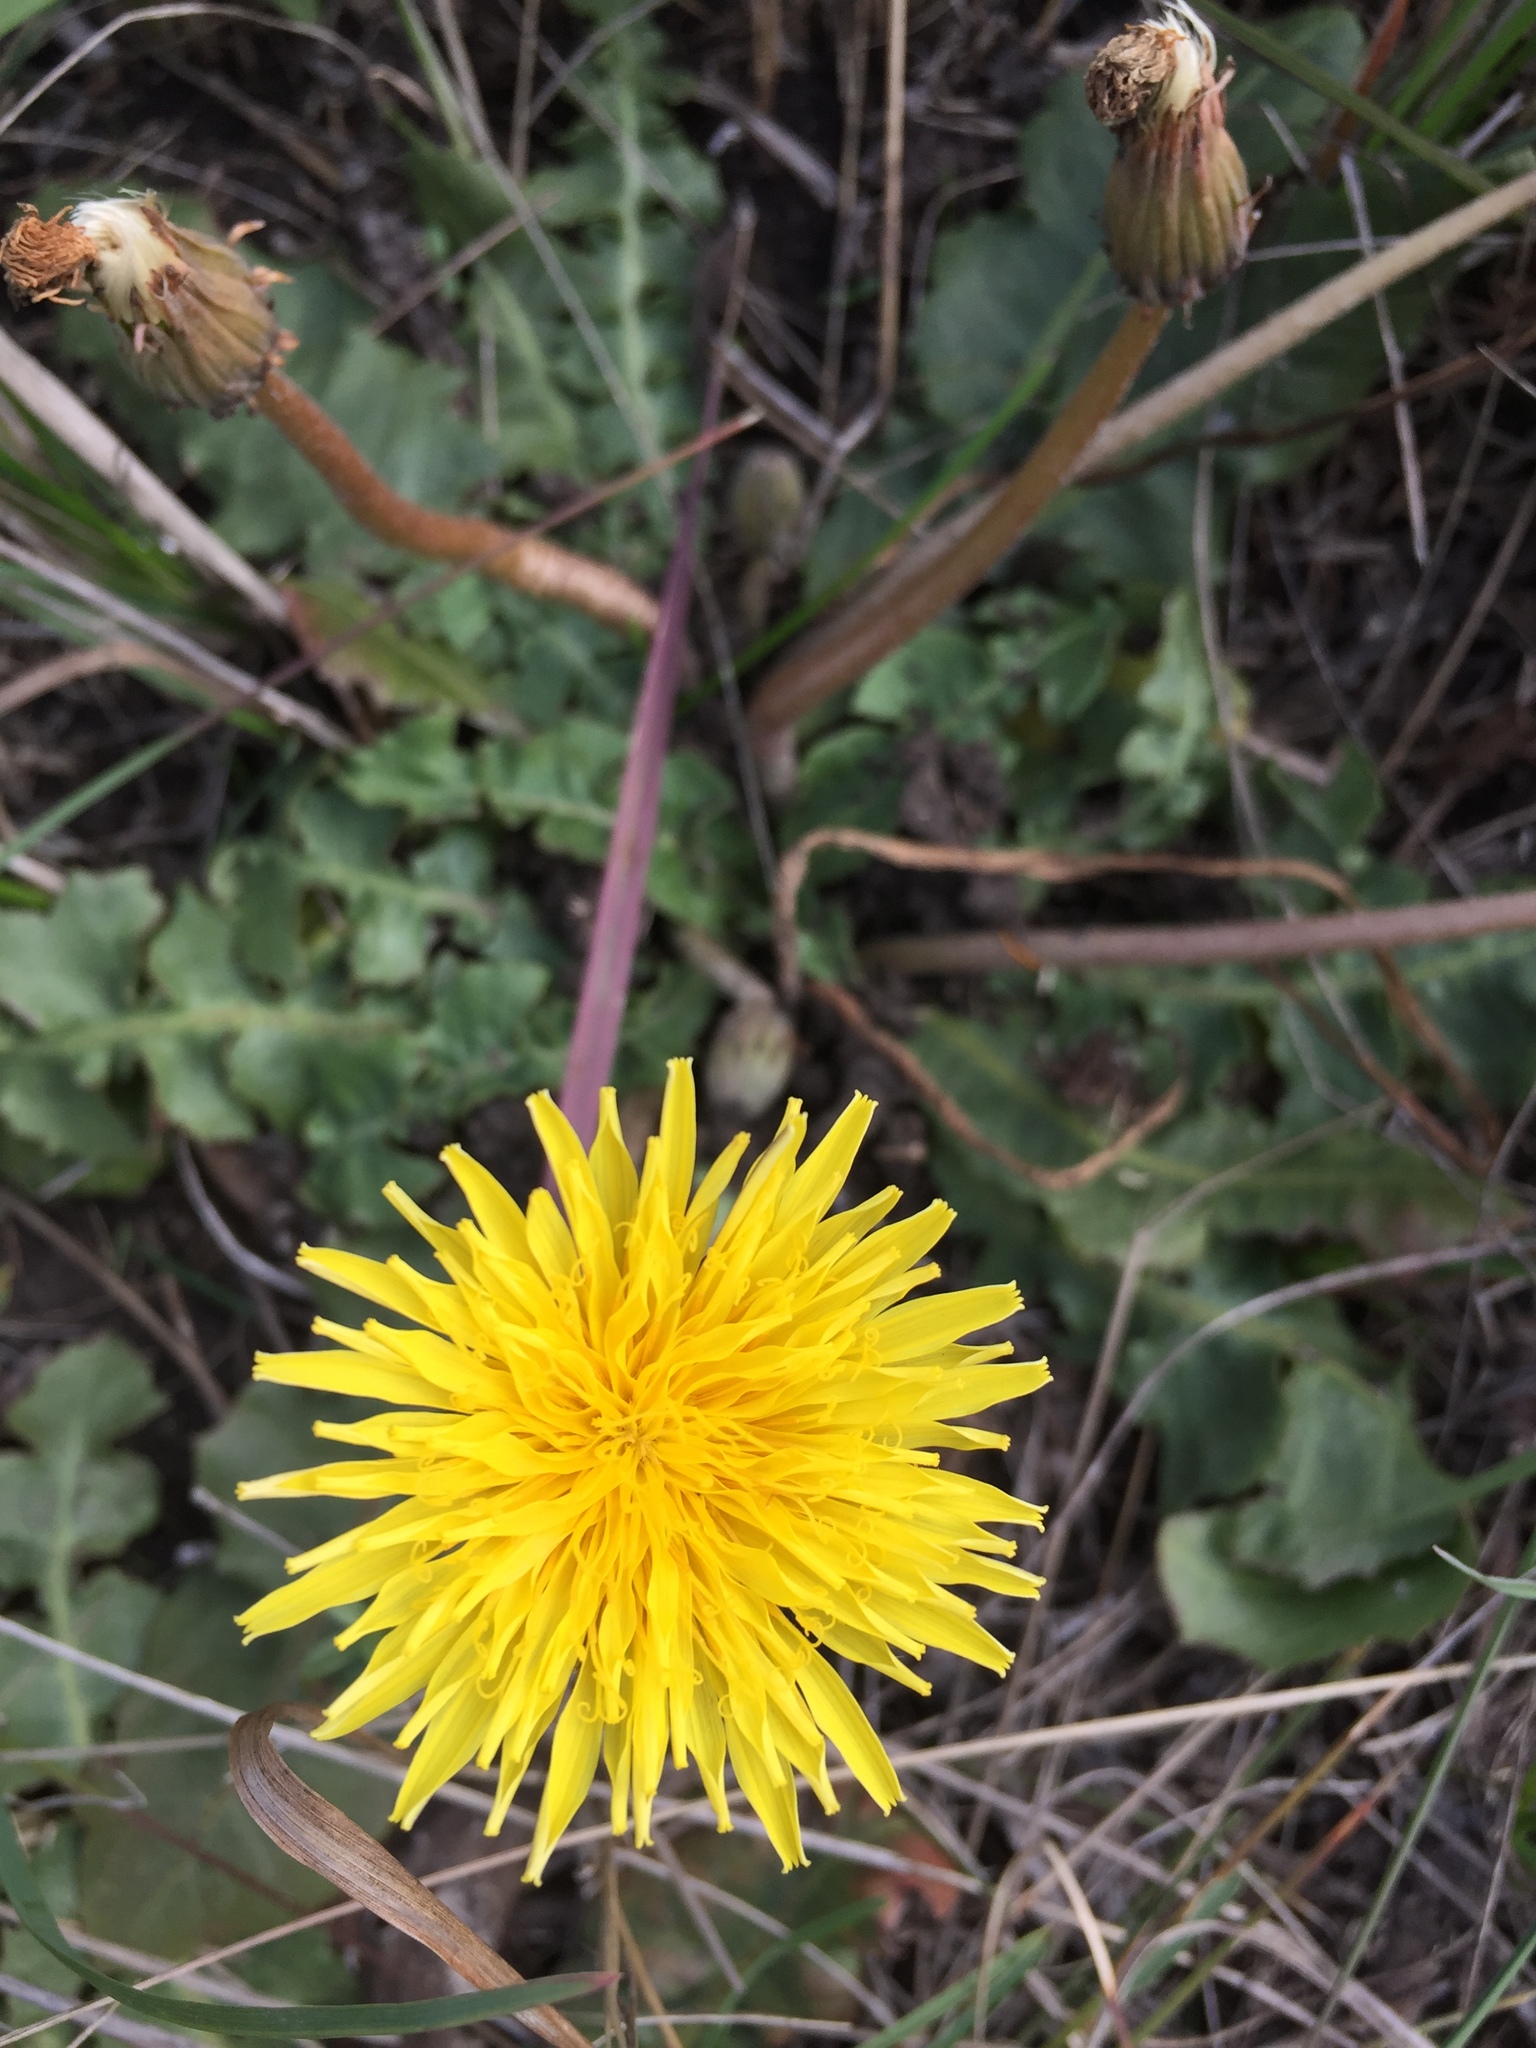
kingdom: Plantae
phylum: Tracheophyta
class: Magnoliopsida
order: Asterales
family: Asteraceae
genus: Taraxacum
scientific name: Taraxacum serotinum
